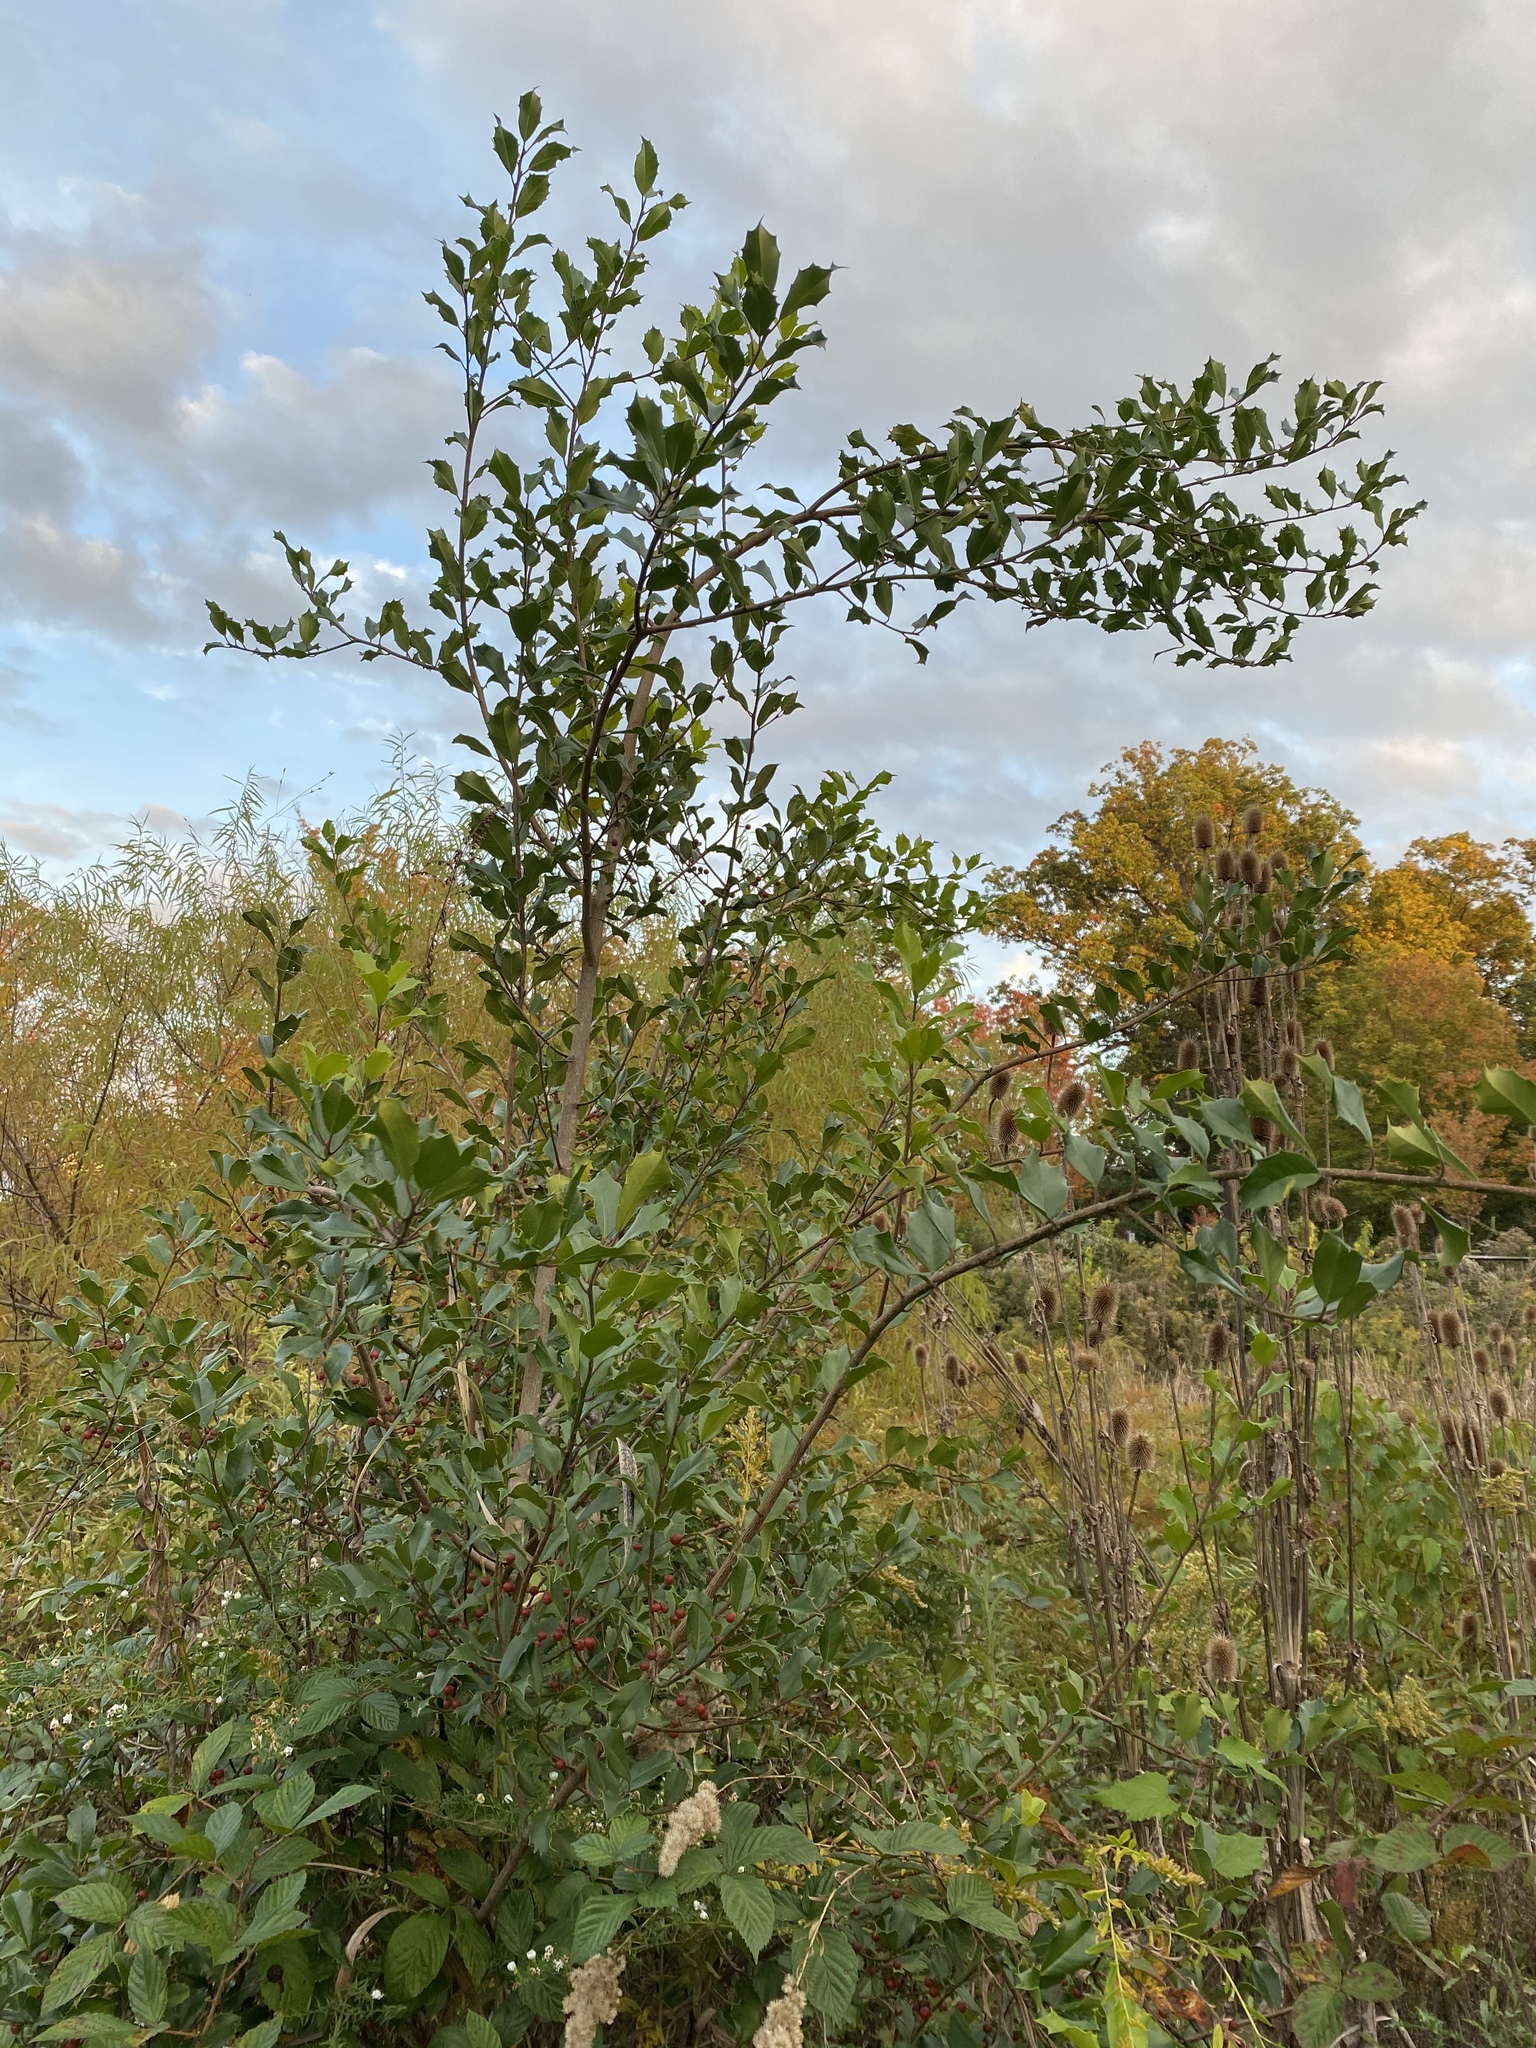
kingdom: Plantae
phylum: Tracheophyta
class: Magnoliopsida
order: Aquifoliales
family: Aquifoliaceae
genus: Ilex
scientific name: Ilex opaca
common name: American holly
